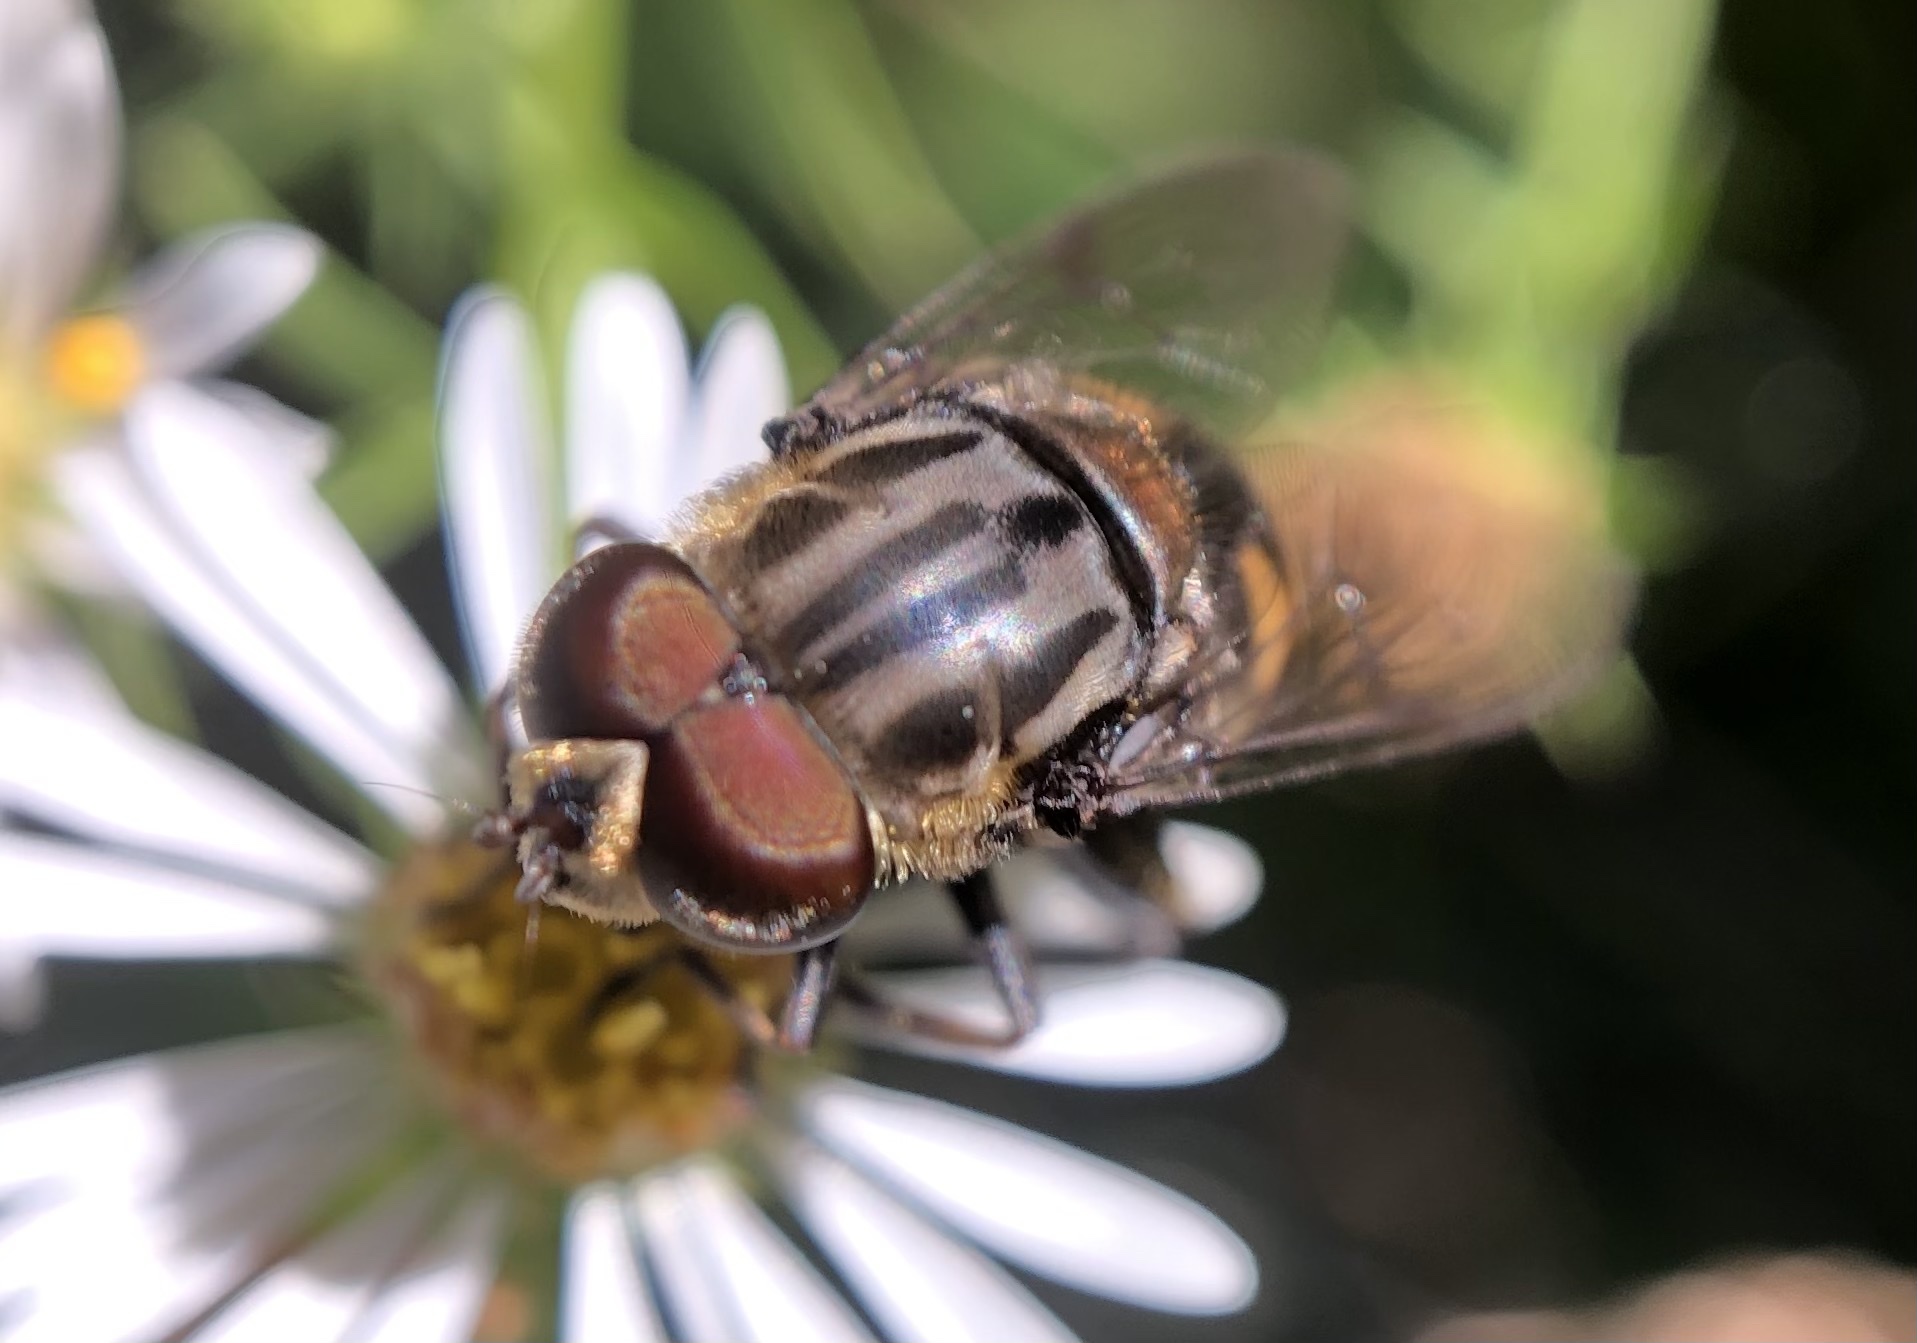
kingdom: Animalia
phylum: Arthropoda
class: Insecta
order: Diptera
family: Syrphidae
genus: Palpada
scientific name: Palpada furcata
